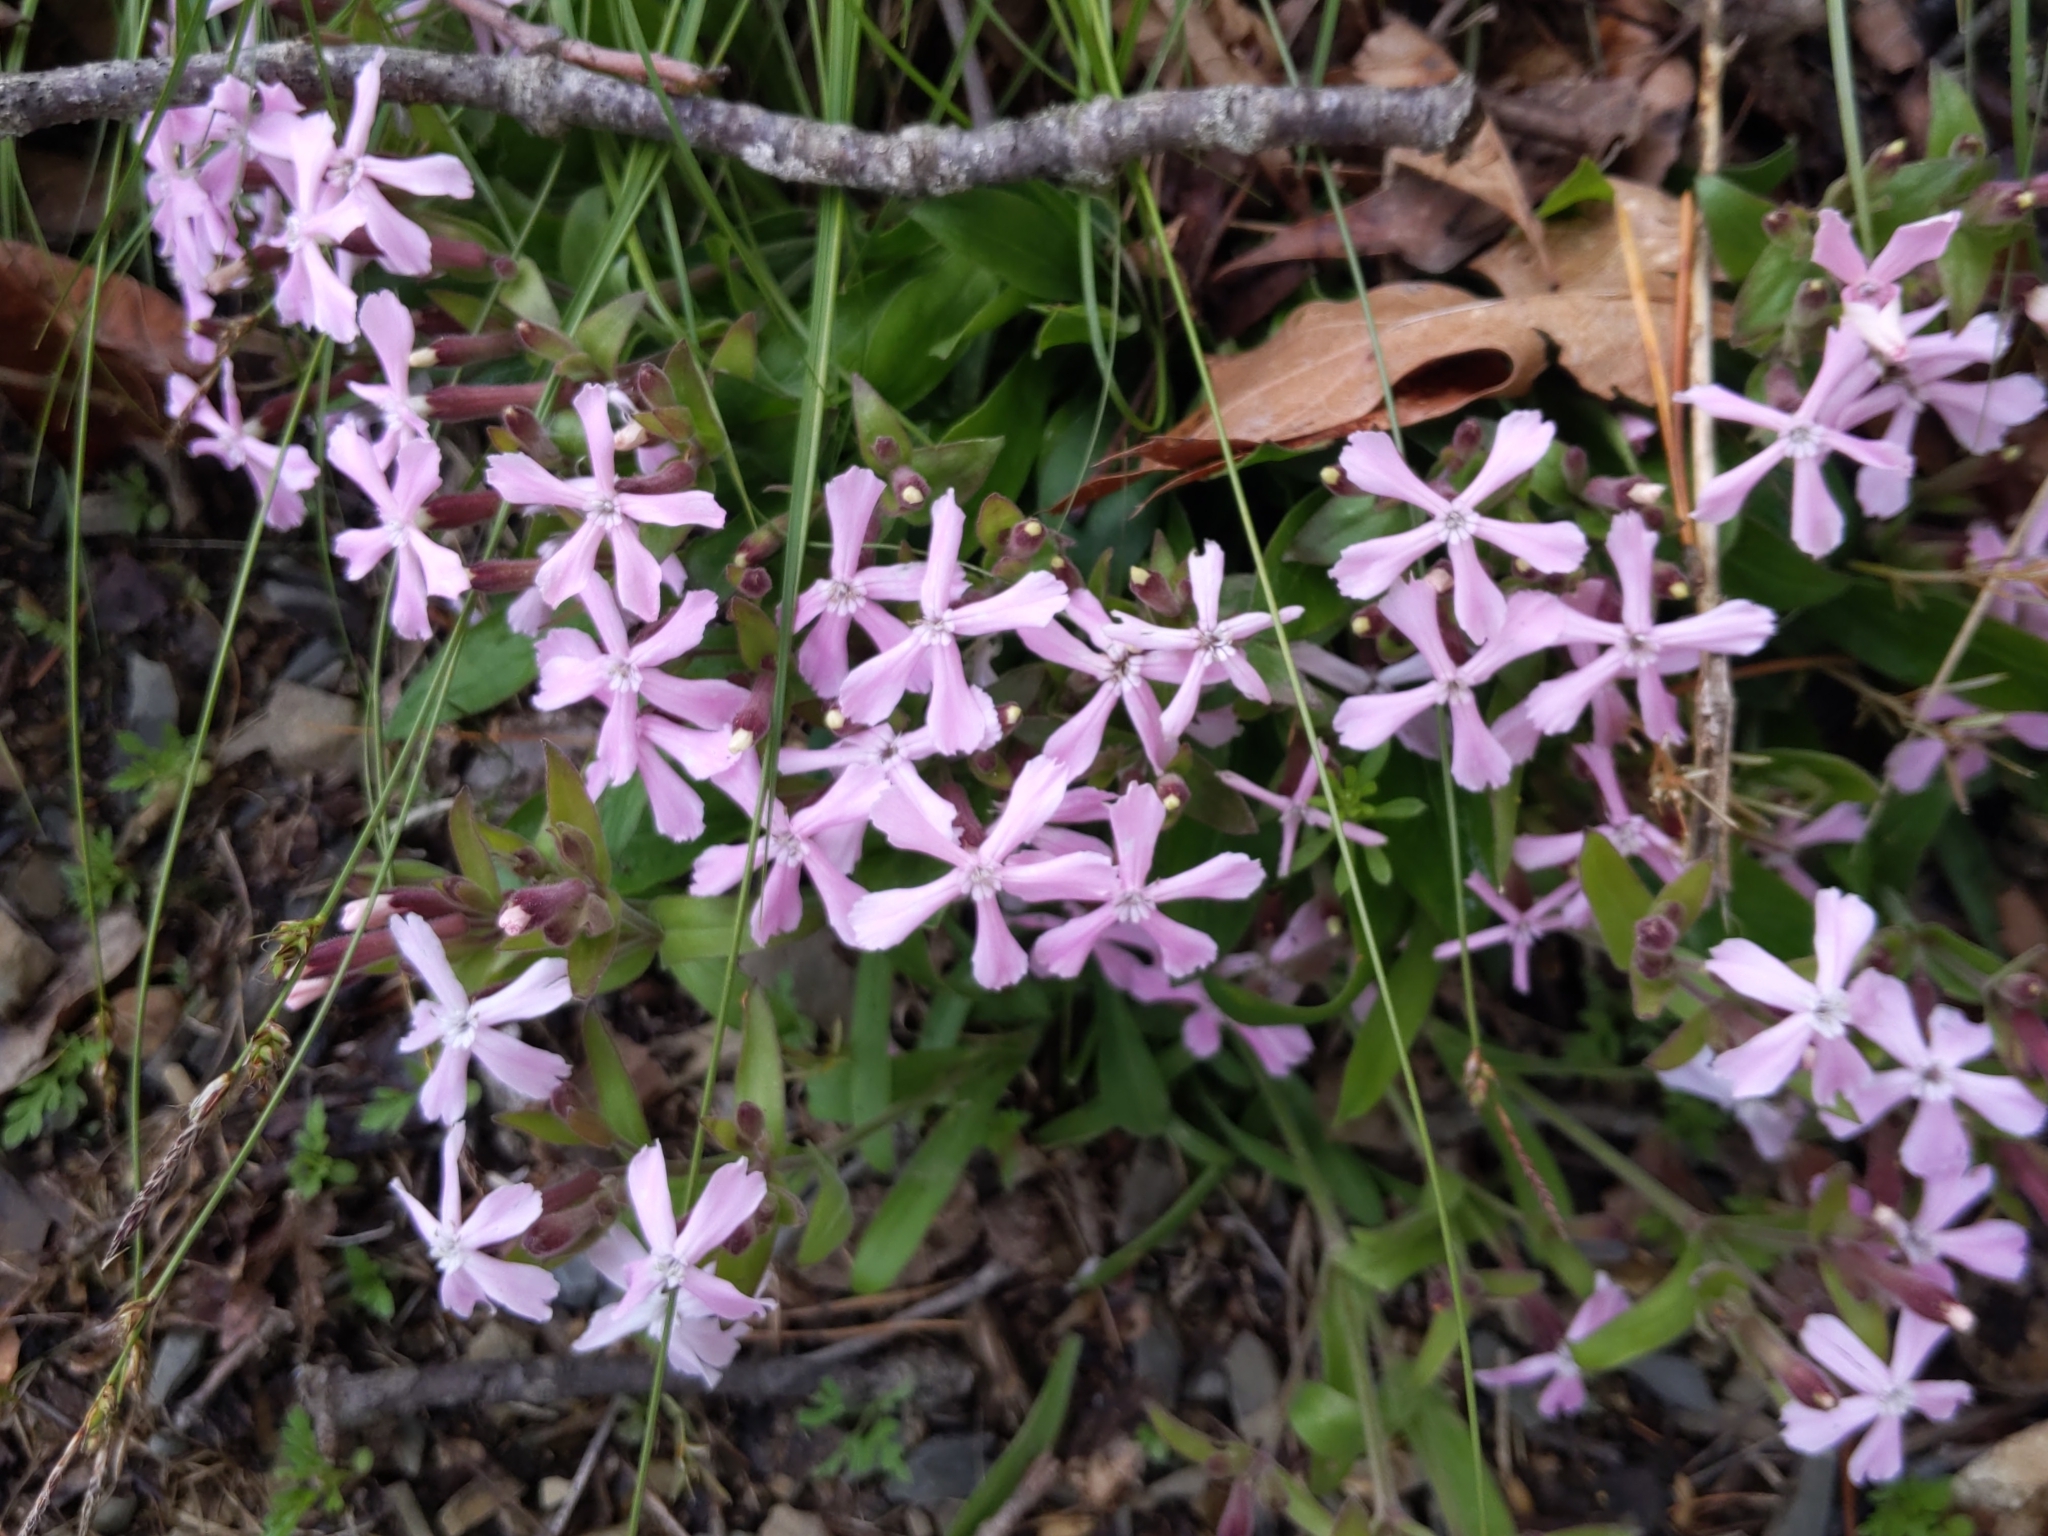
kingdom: Plantae
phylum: Tracheophyta
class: Magnoliopsida
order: Caryophyllales
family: Caryophyllaceae
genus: Silene
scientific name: Silene caroliniana
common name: Sticky catchfly
